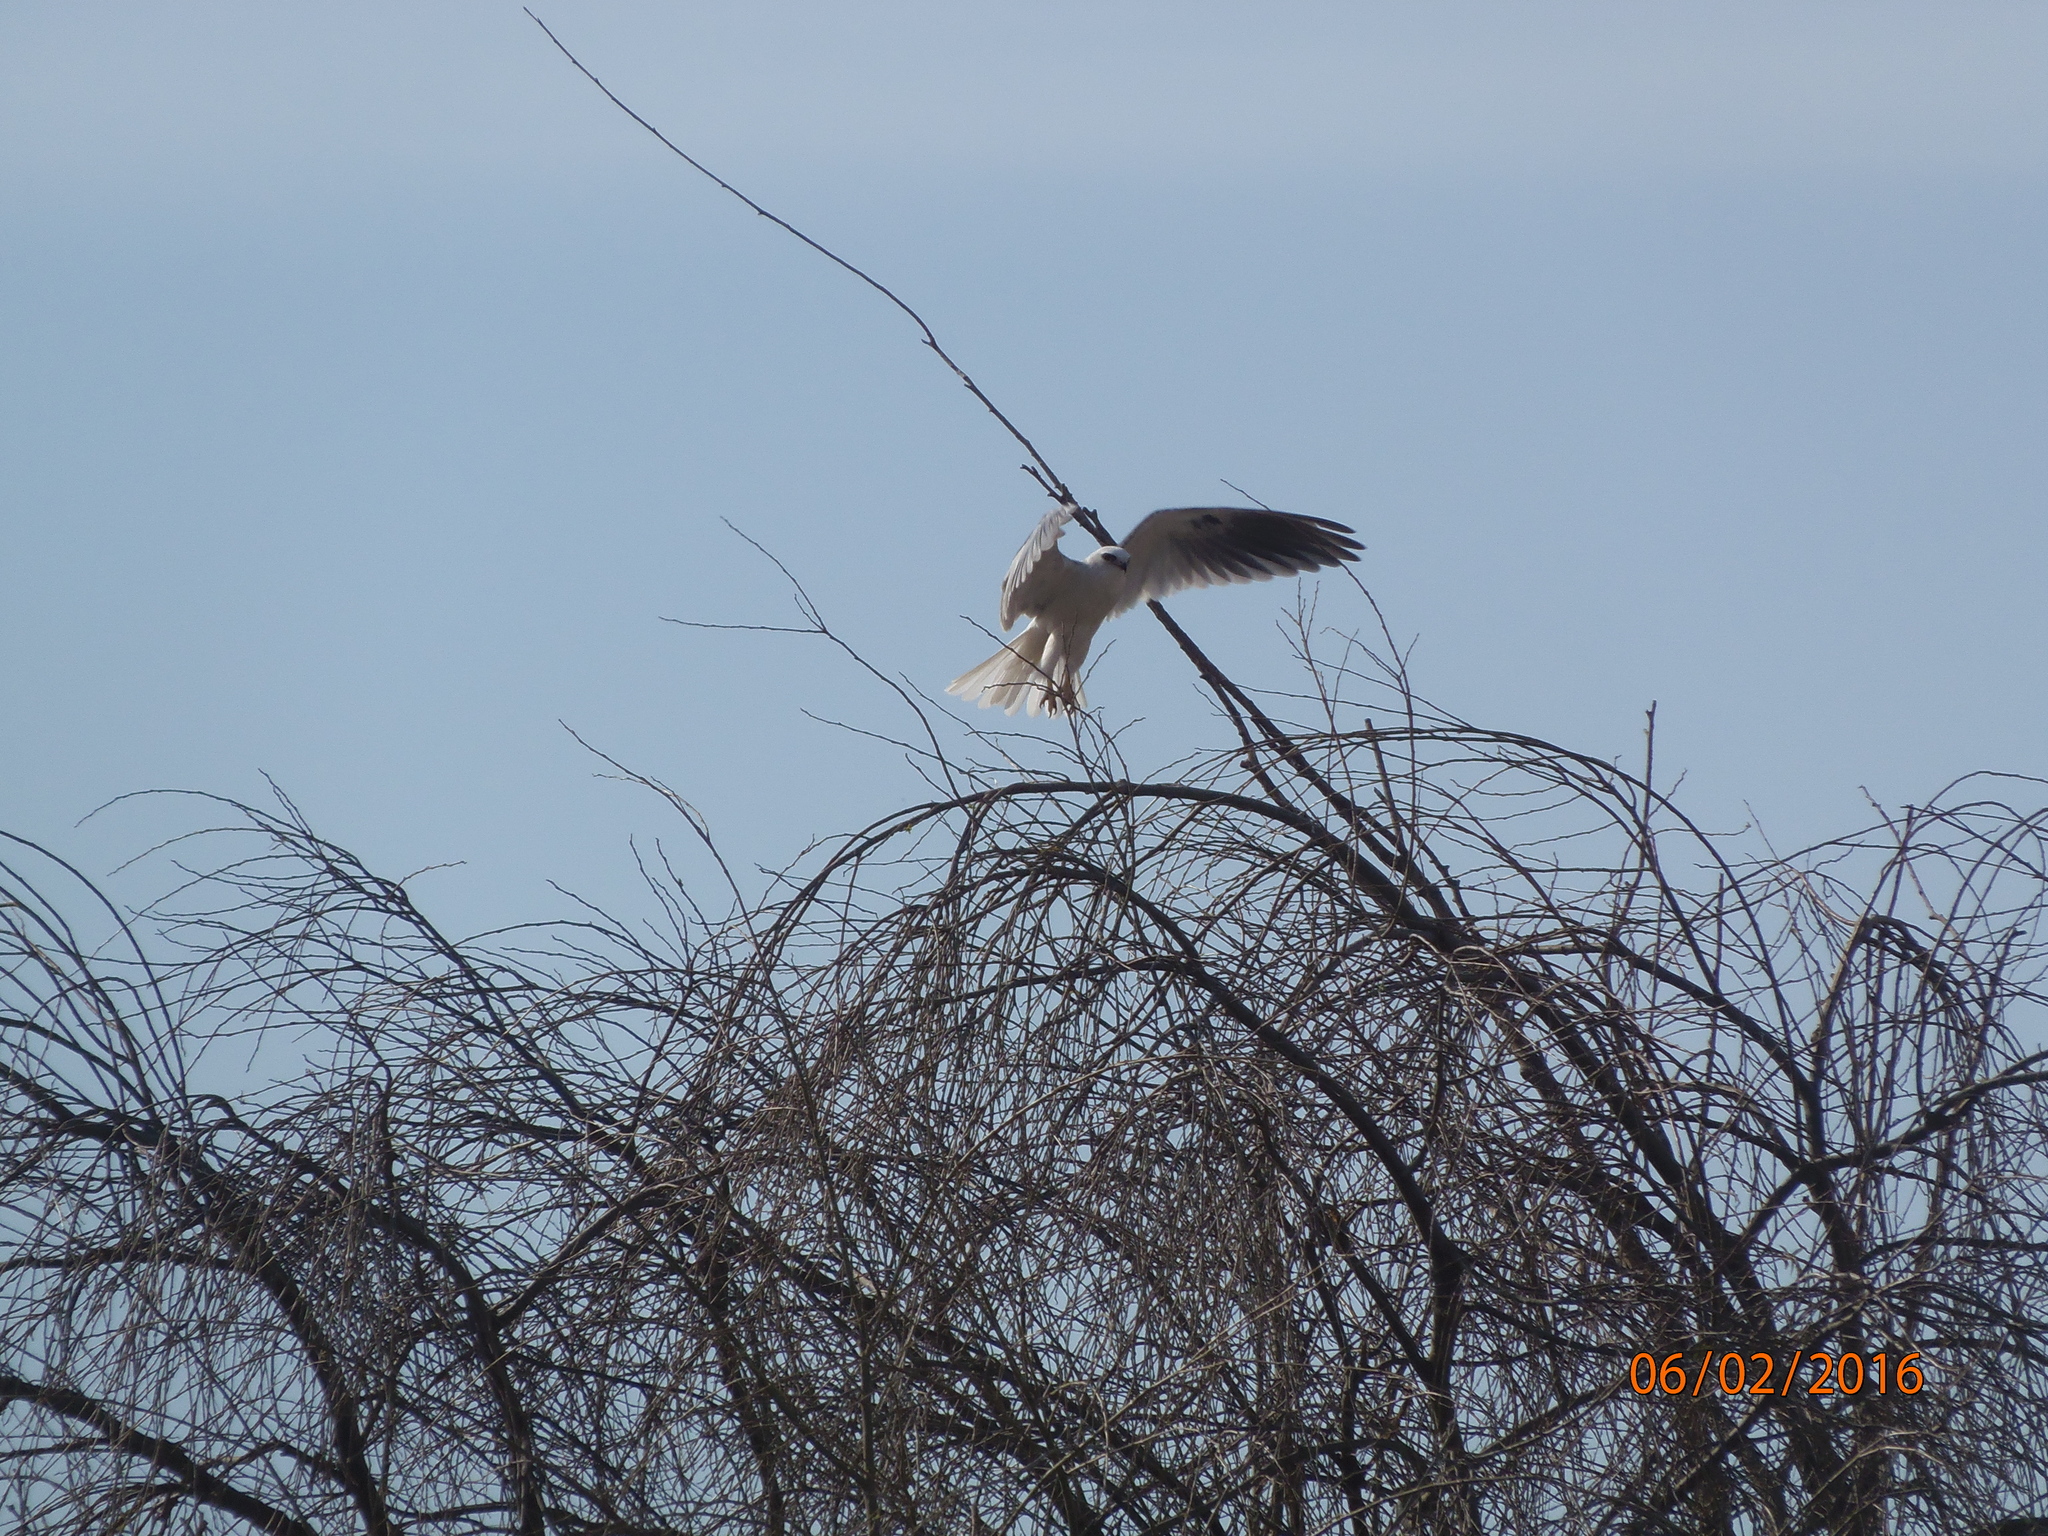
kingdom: Animalia
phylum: Chordata
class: Aves
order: Accipitriformes
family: Accipitridae
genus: Elanus
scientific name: Elanus leucurus
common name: White-tailed kite
